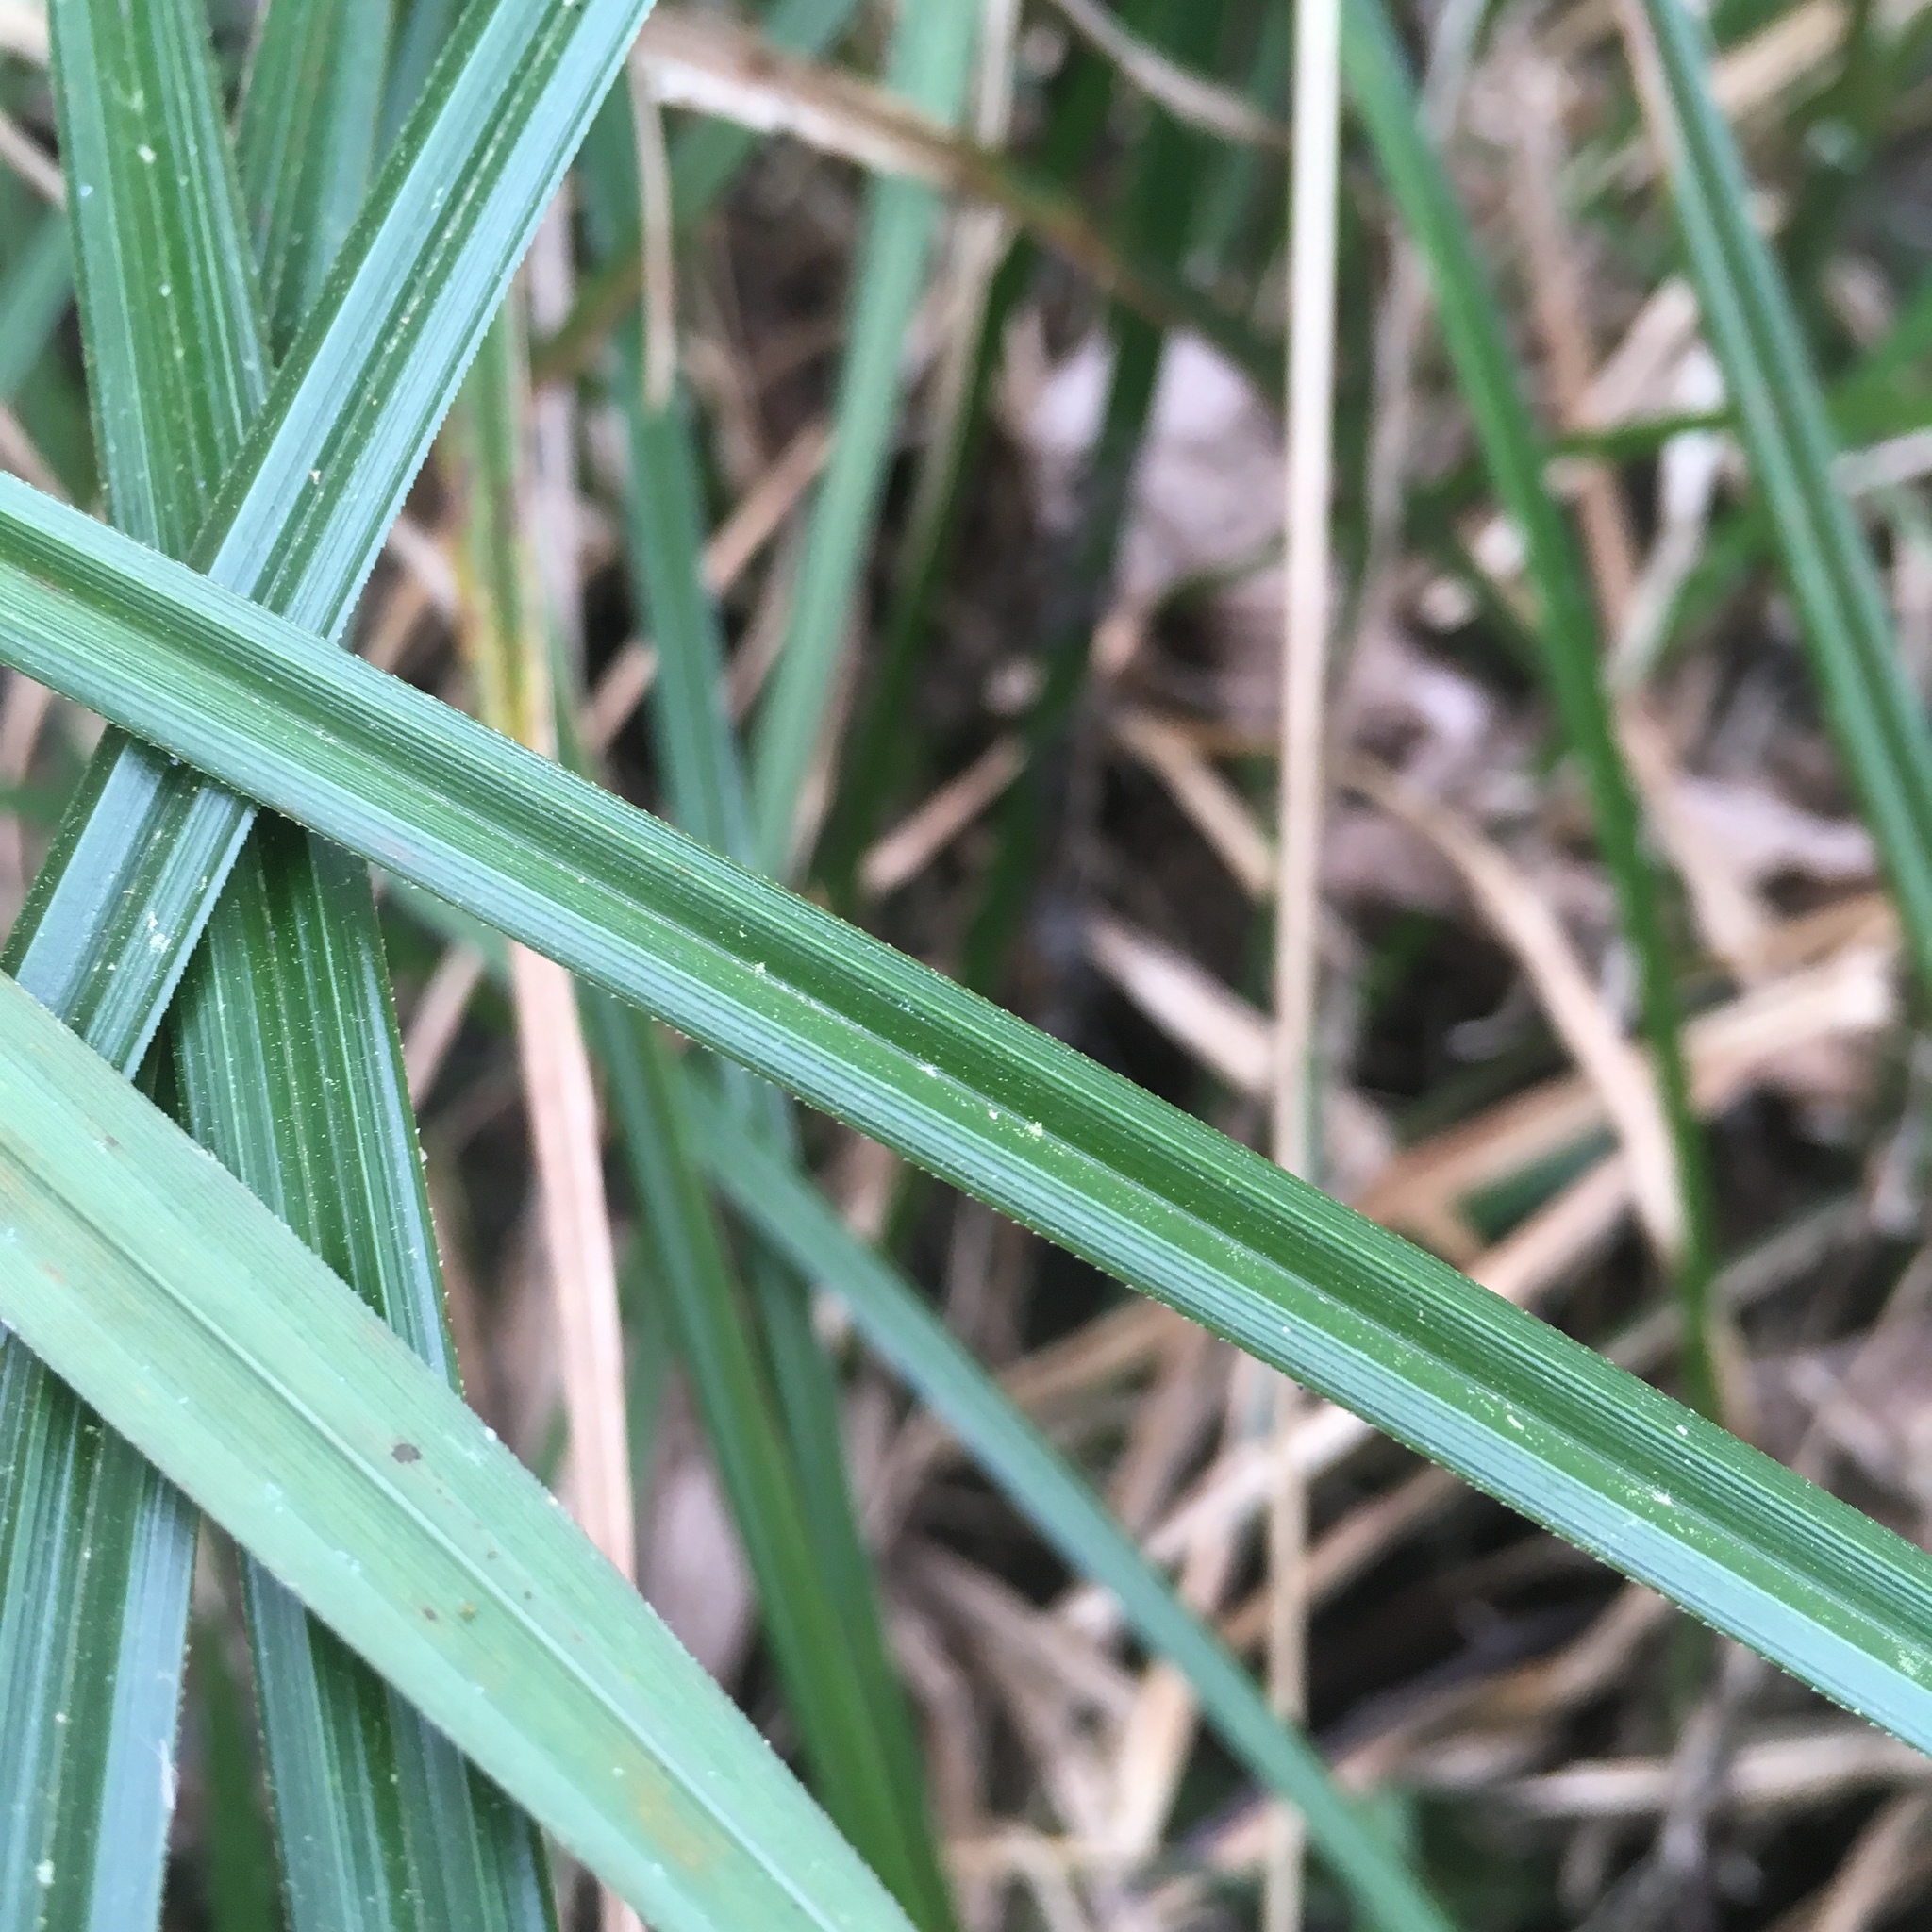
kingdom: Plantae
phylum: Tracheophyta
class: Liliopsida
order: Poales
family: Cyperaceae
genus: Carex
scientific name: Carex obnupta
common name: Slough sedge
